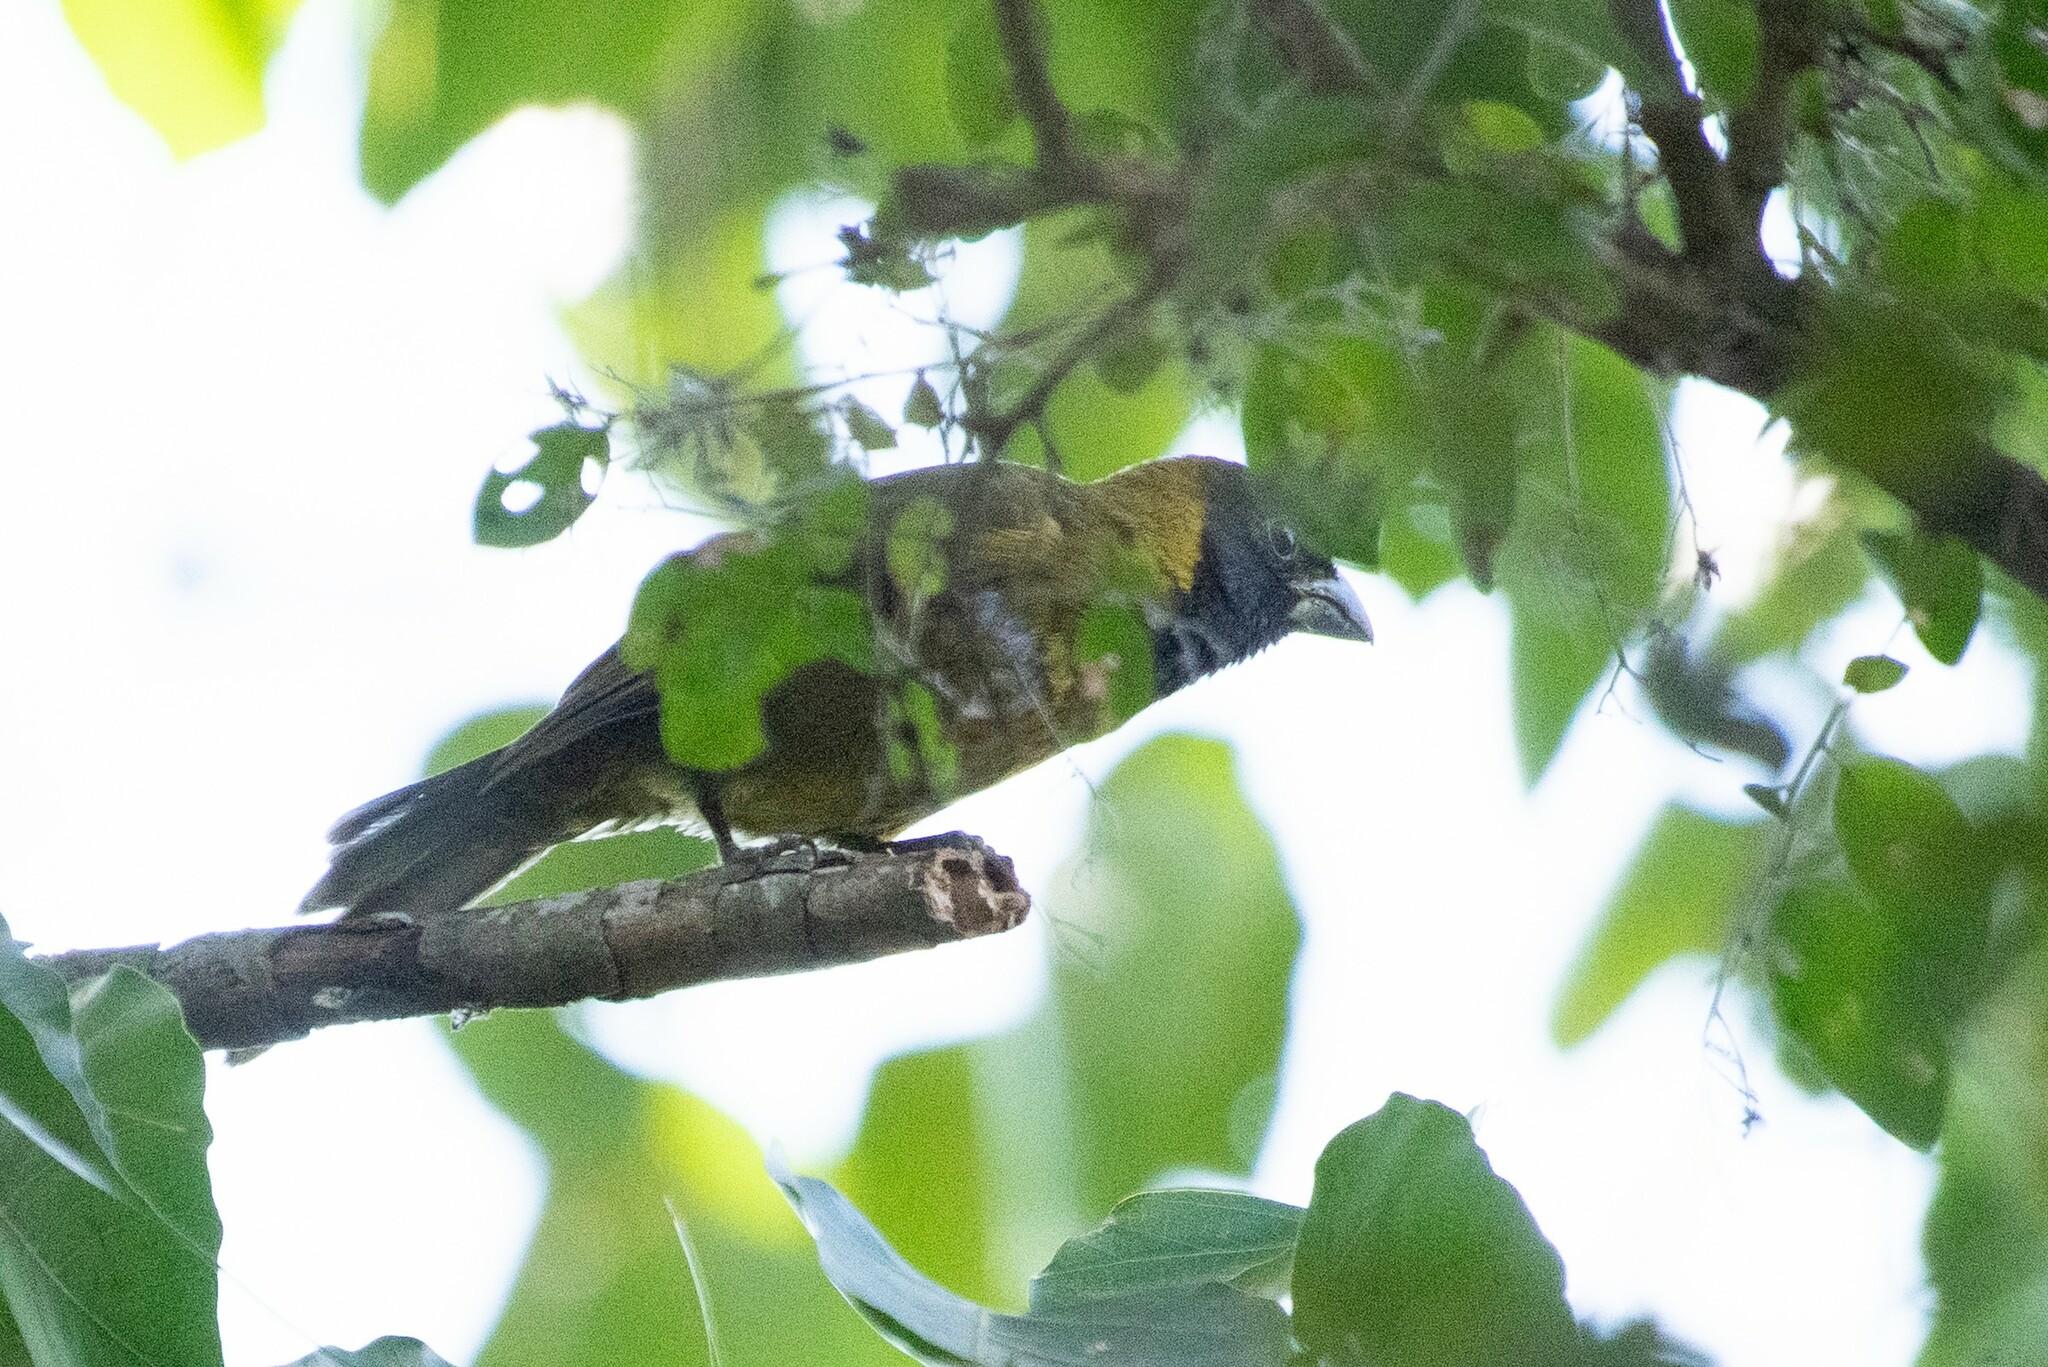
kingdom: Animalia
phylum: Chordata
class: Aves
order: Passeriformes
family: Cardinalidae
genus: Rhodothraupis
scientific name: Rhodothraupis celaeno
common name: Crimson-collared grosbeak
